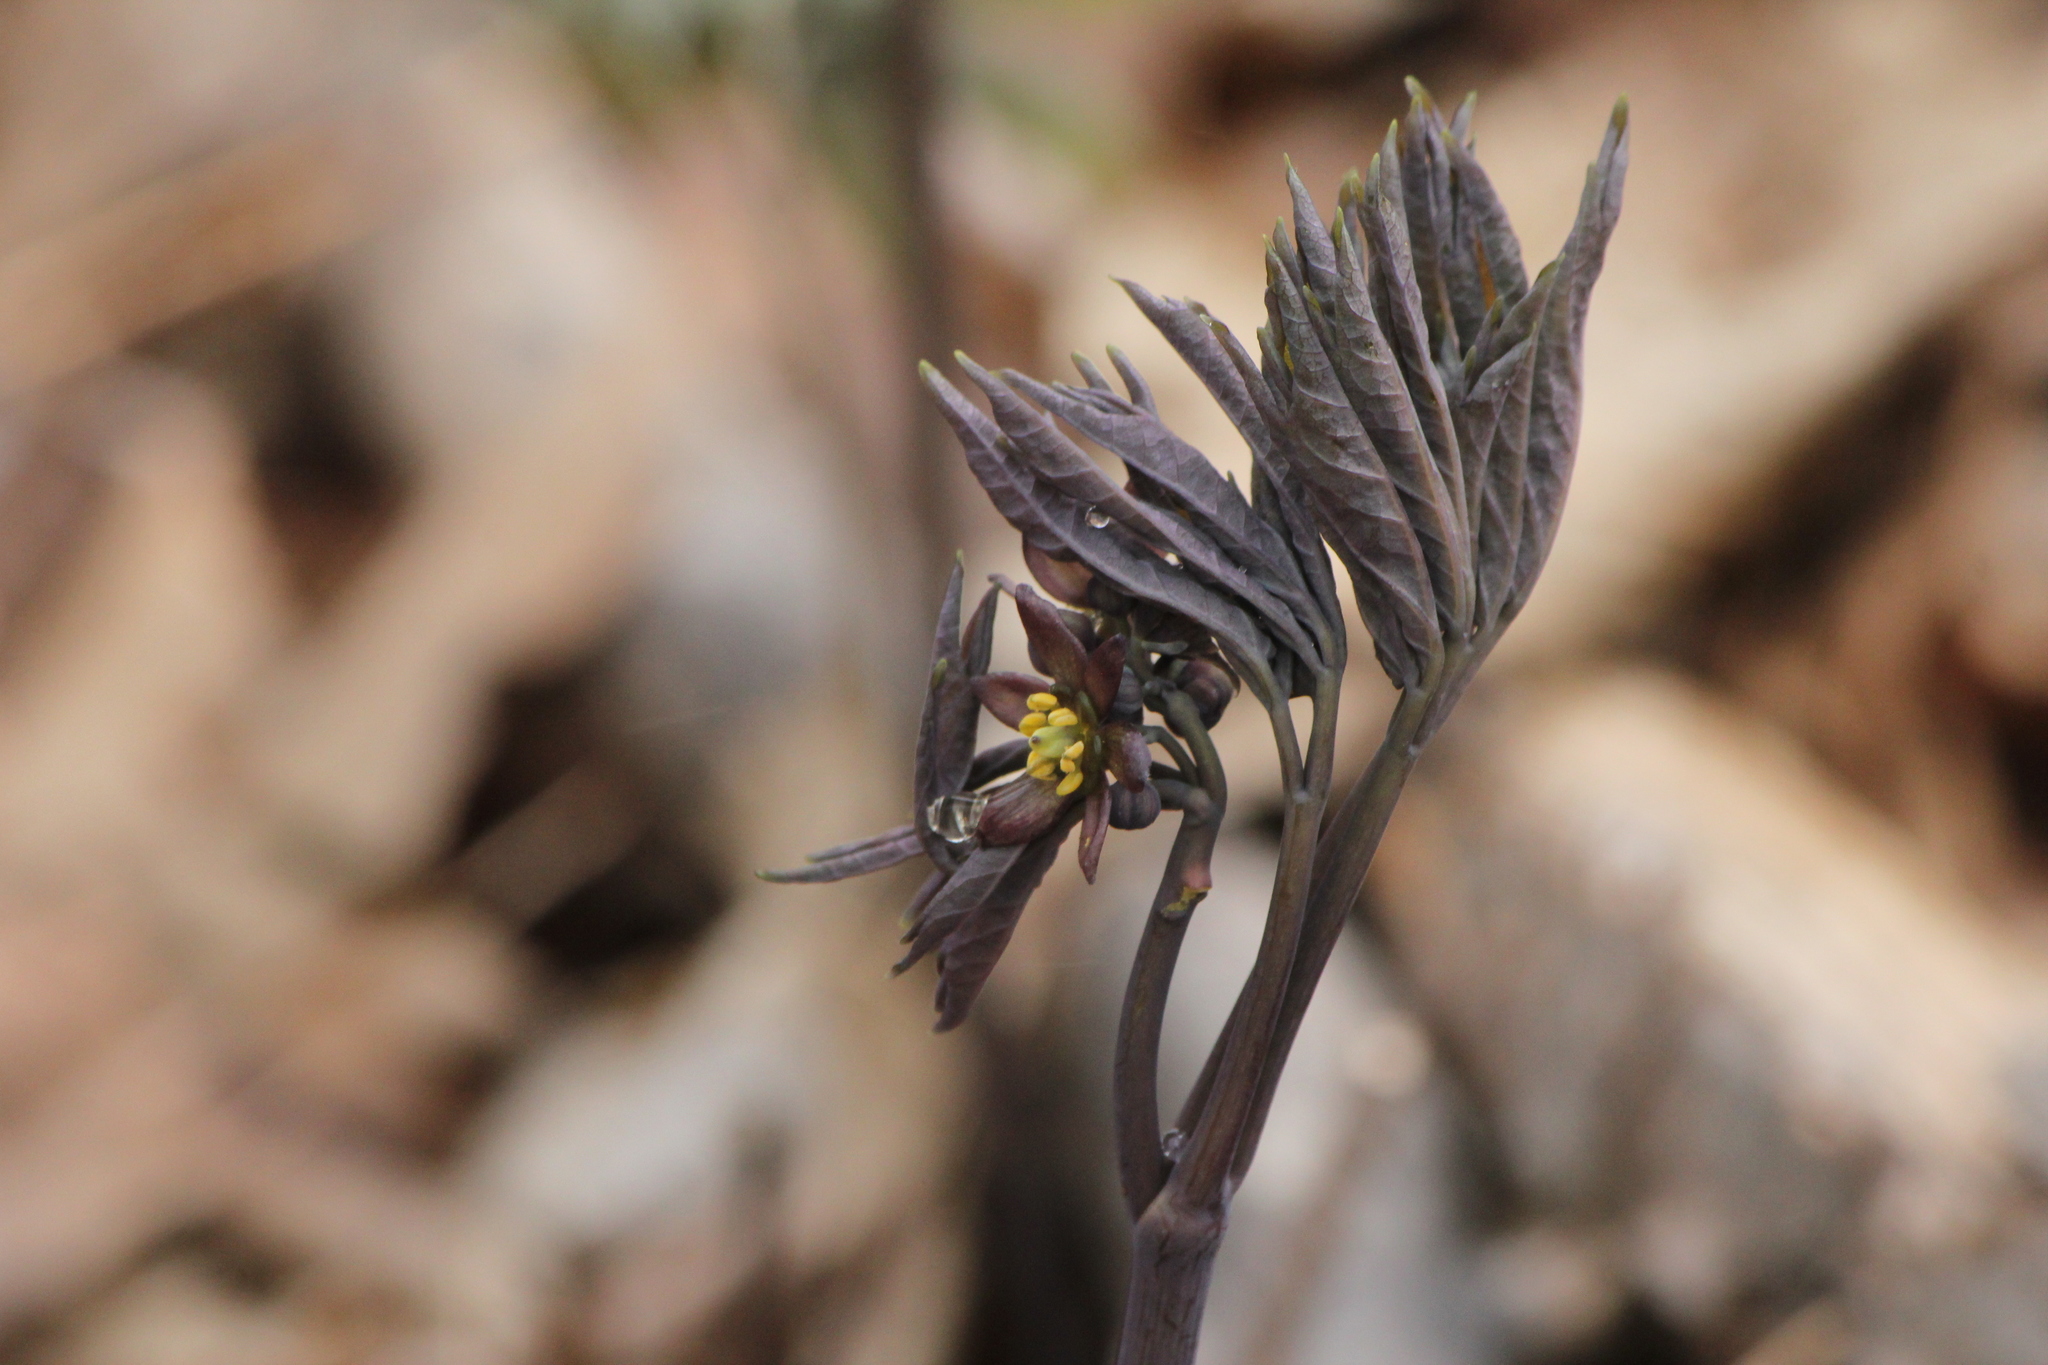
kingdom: Plantae
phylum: Tracheophyta
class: Magnoliopsida
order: Ranunculales
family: Berberidaceae
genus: Caulophyllum
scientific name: Caulophyllum giganteum
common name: Blue cohosh
